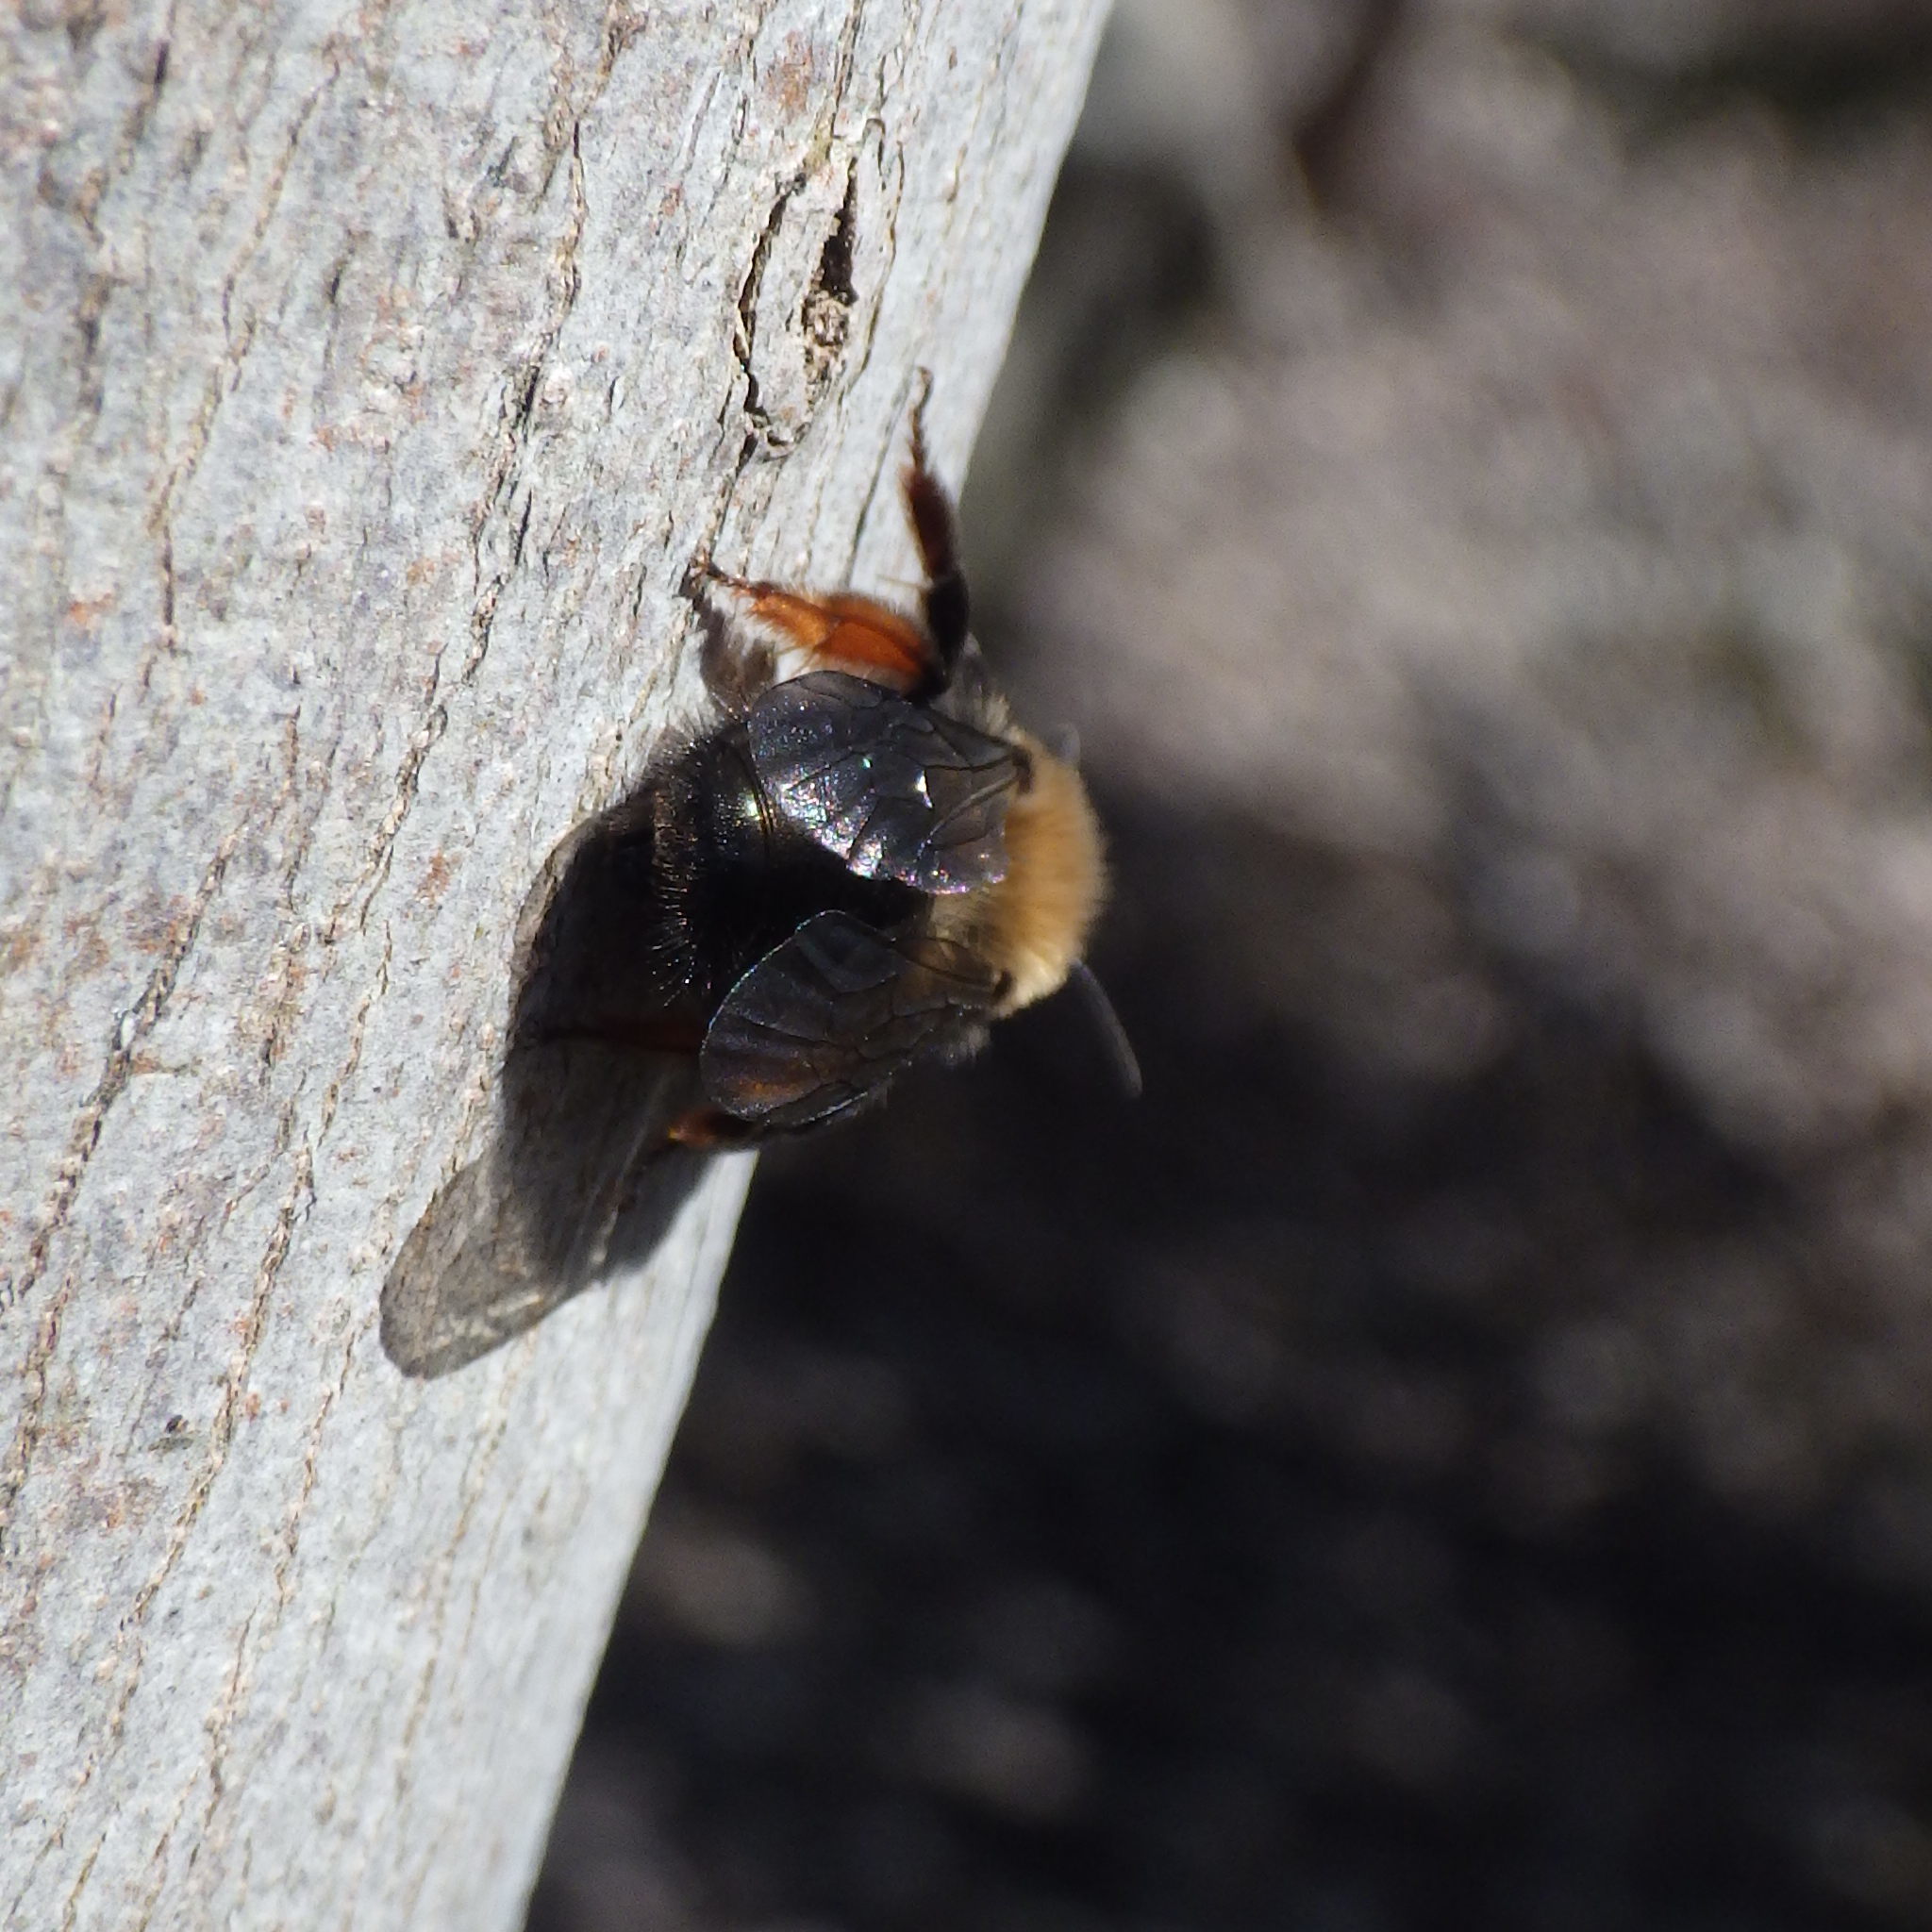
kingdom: Animalia
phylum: Arthropoda
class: Insecta
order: Hymenoptera
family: Andrenidae
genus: Andrena
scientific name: Andrena clarkella
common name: Clarke's mining bee
